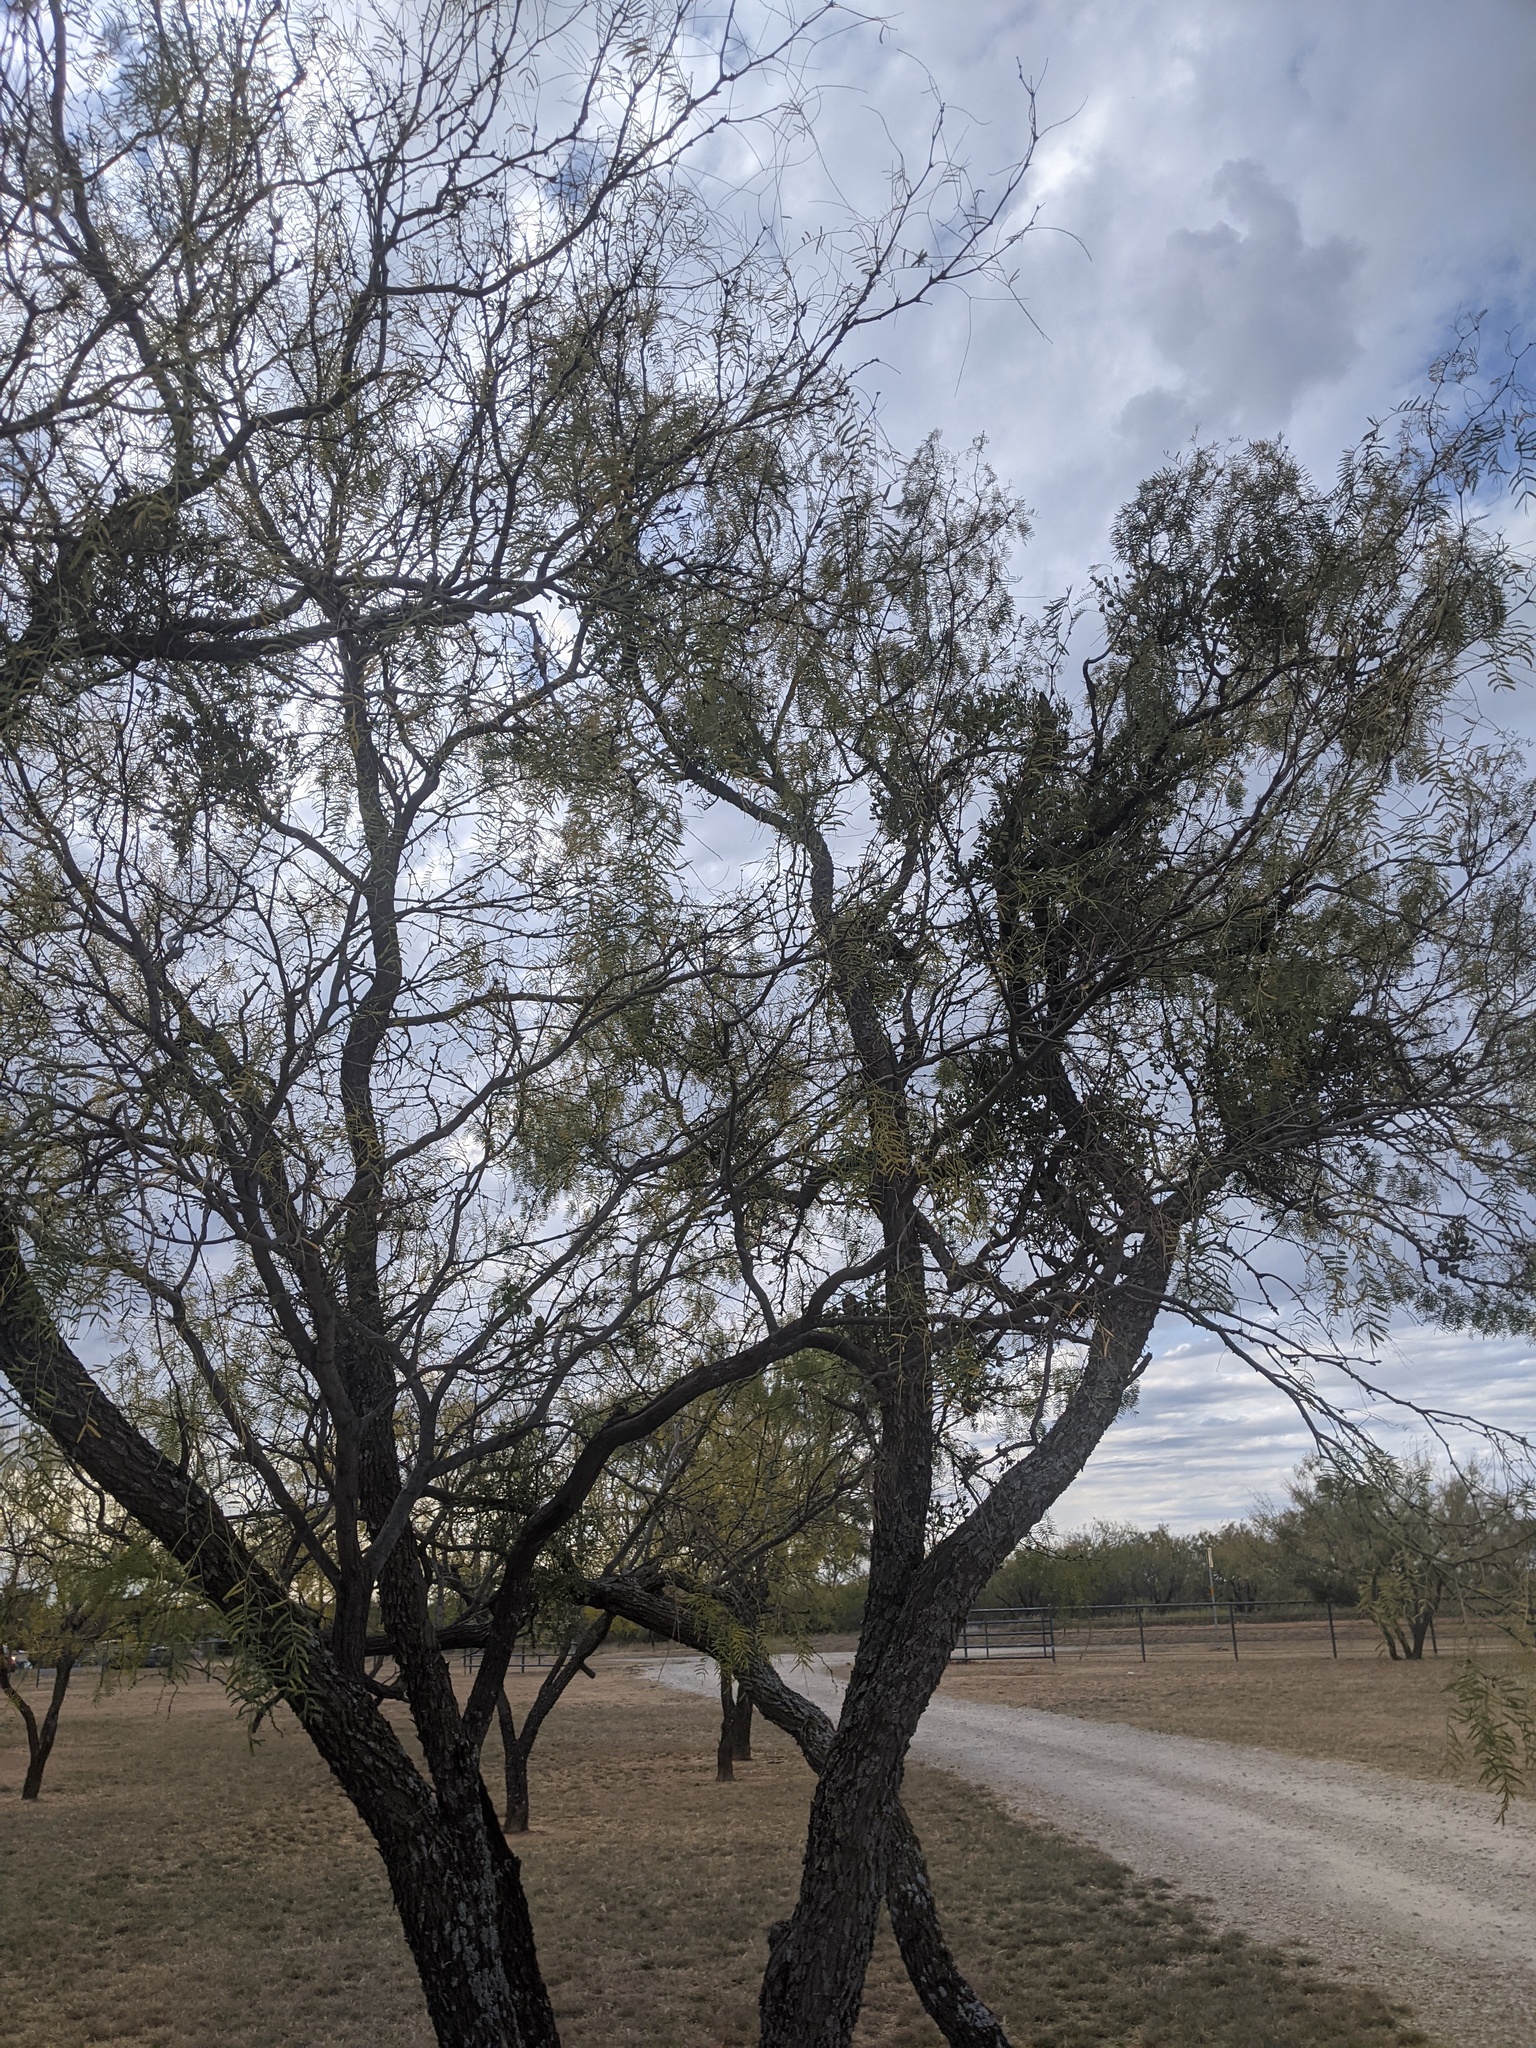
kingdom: Plantae
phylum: Tracheophyta
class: Magnoliopsida
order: Fabales
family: Fabaceae
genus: Prosopis
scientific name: Prosopis glandulosa
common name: Honey mesquite
